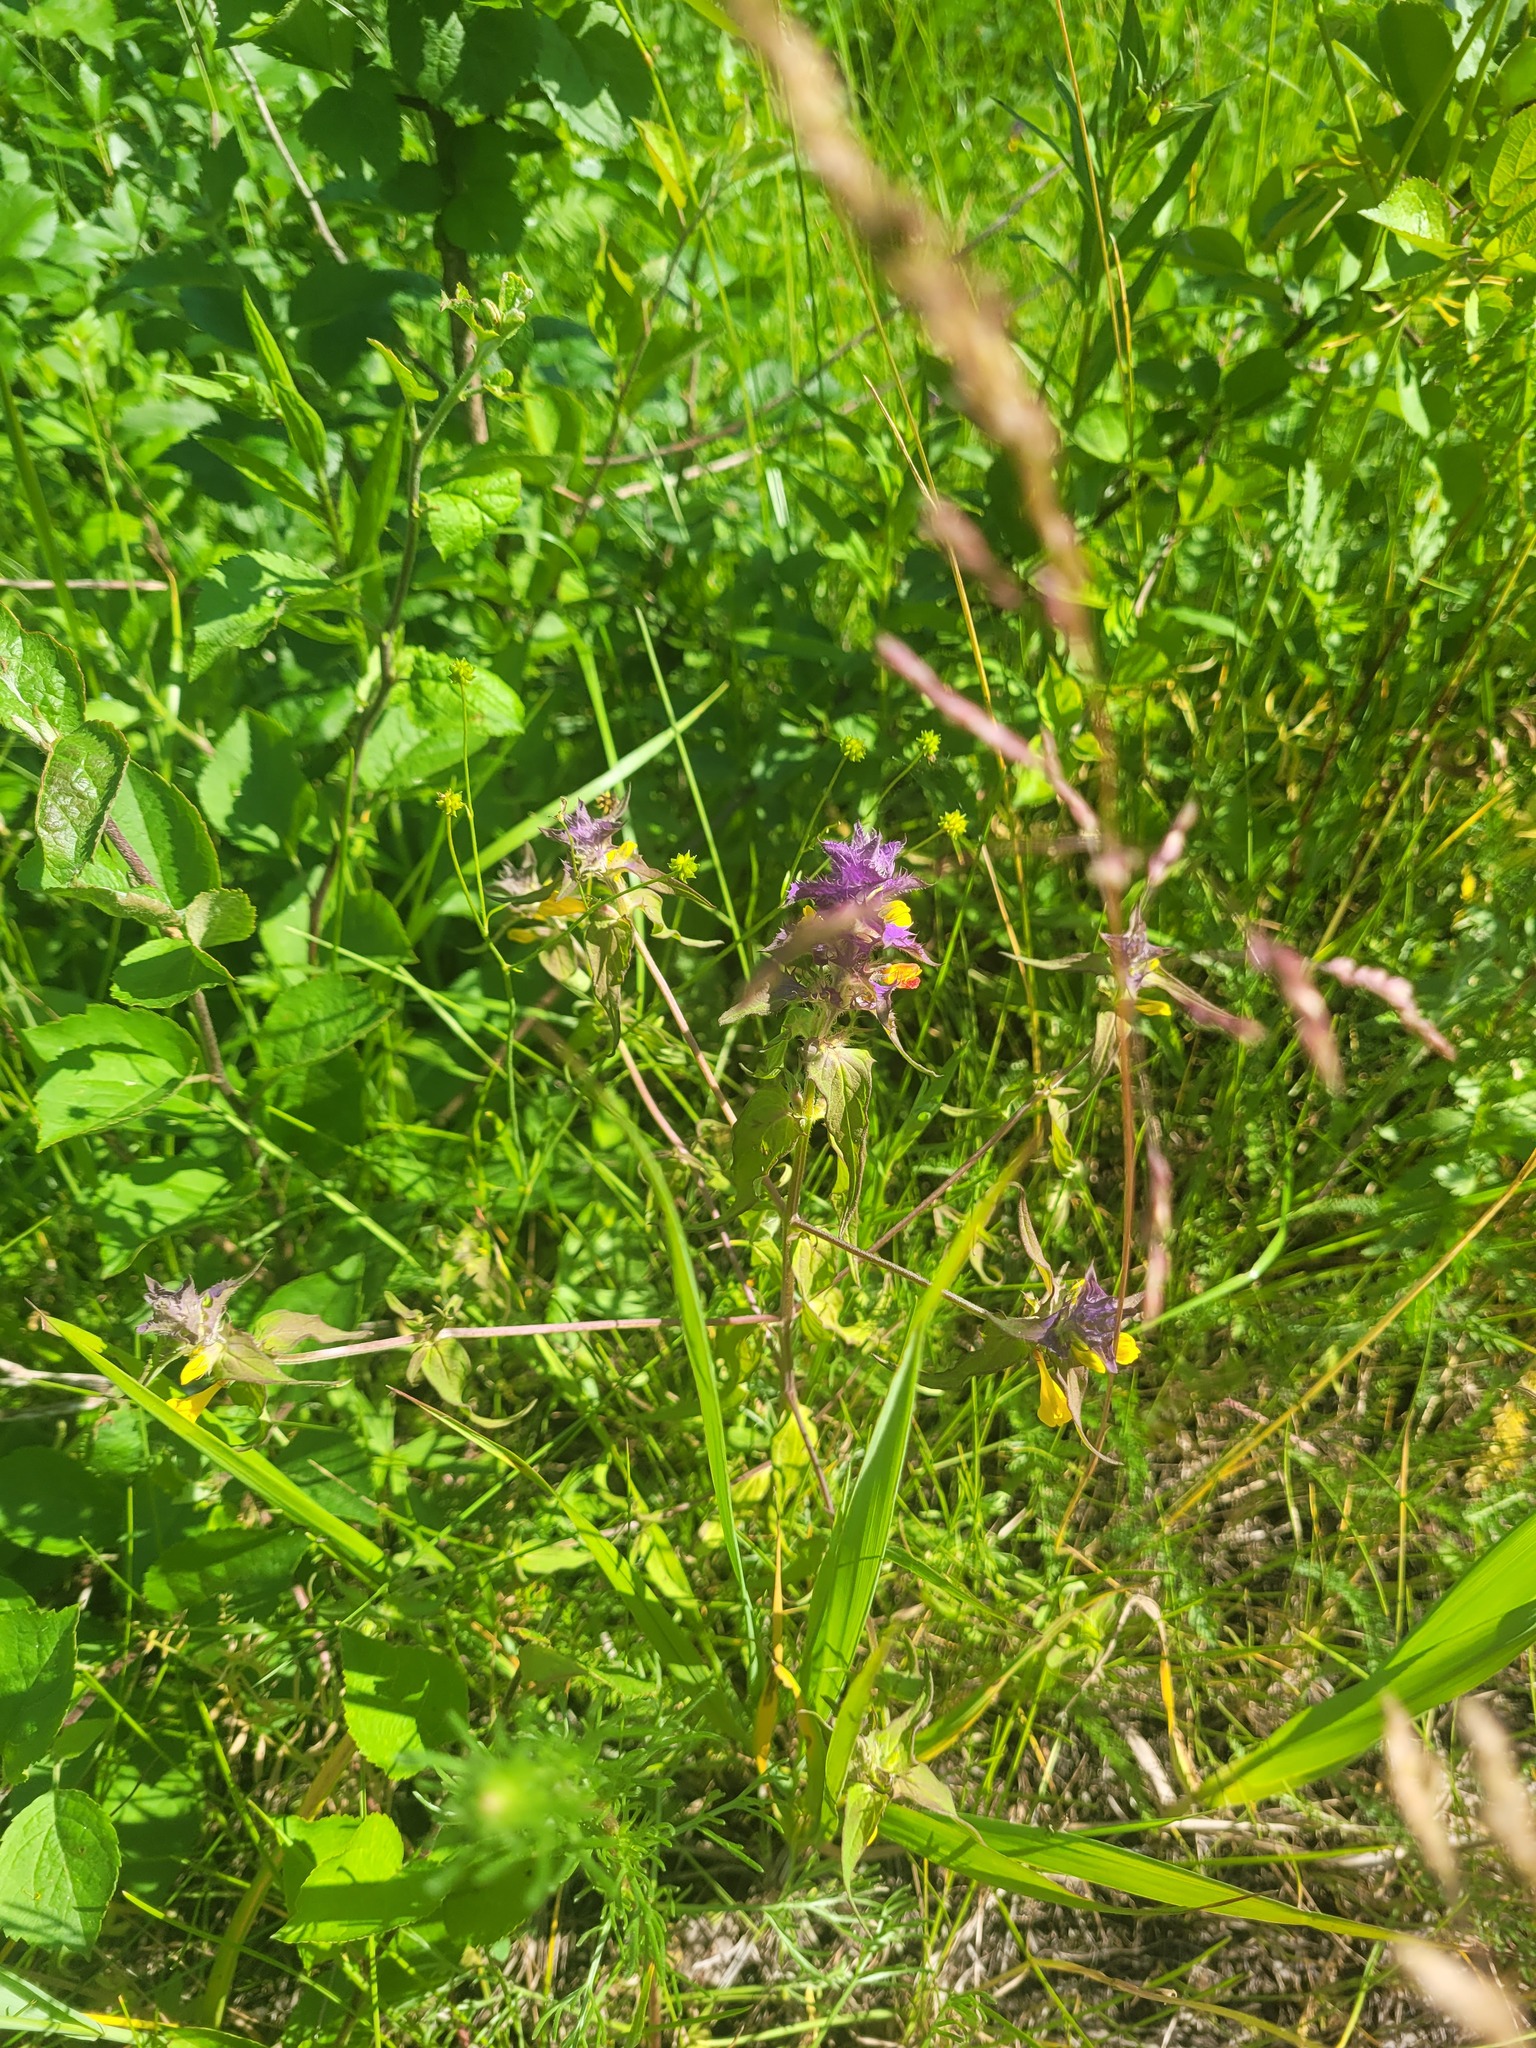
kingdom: Plantae
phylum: Tracheophyta
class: Magnoliopsida
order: Lamiales
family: Orobanchaceae
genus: Melampyrum
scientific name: Melampyrum nemorosum
